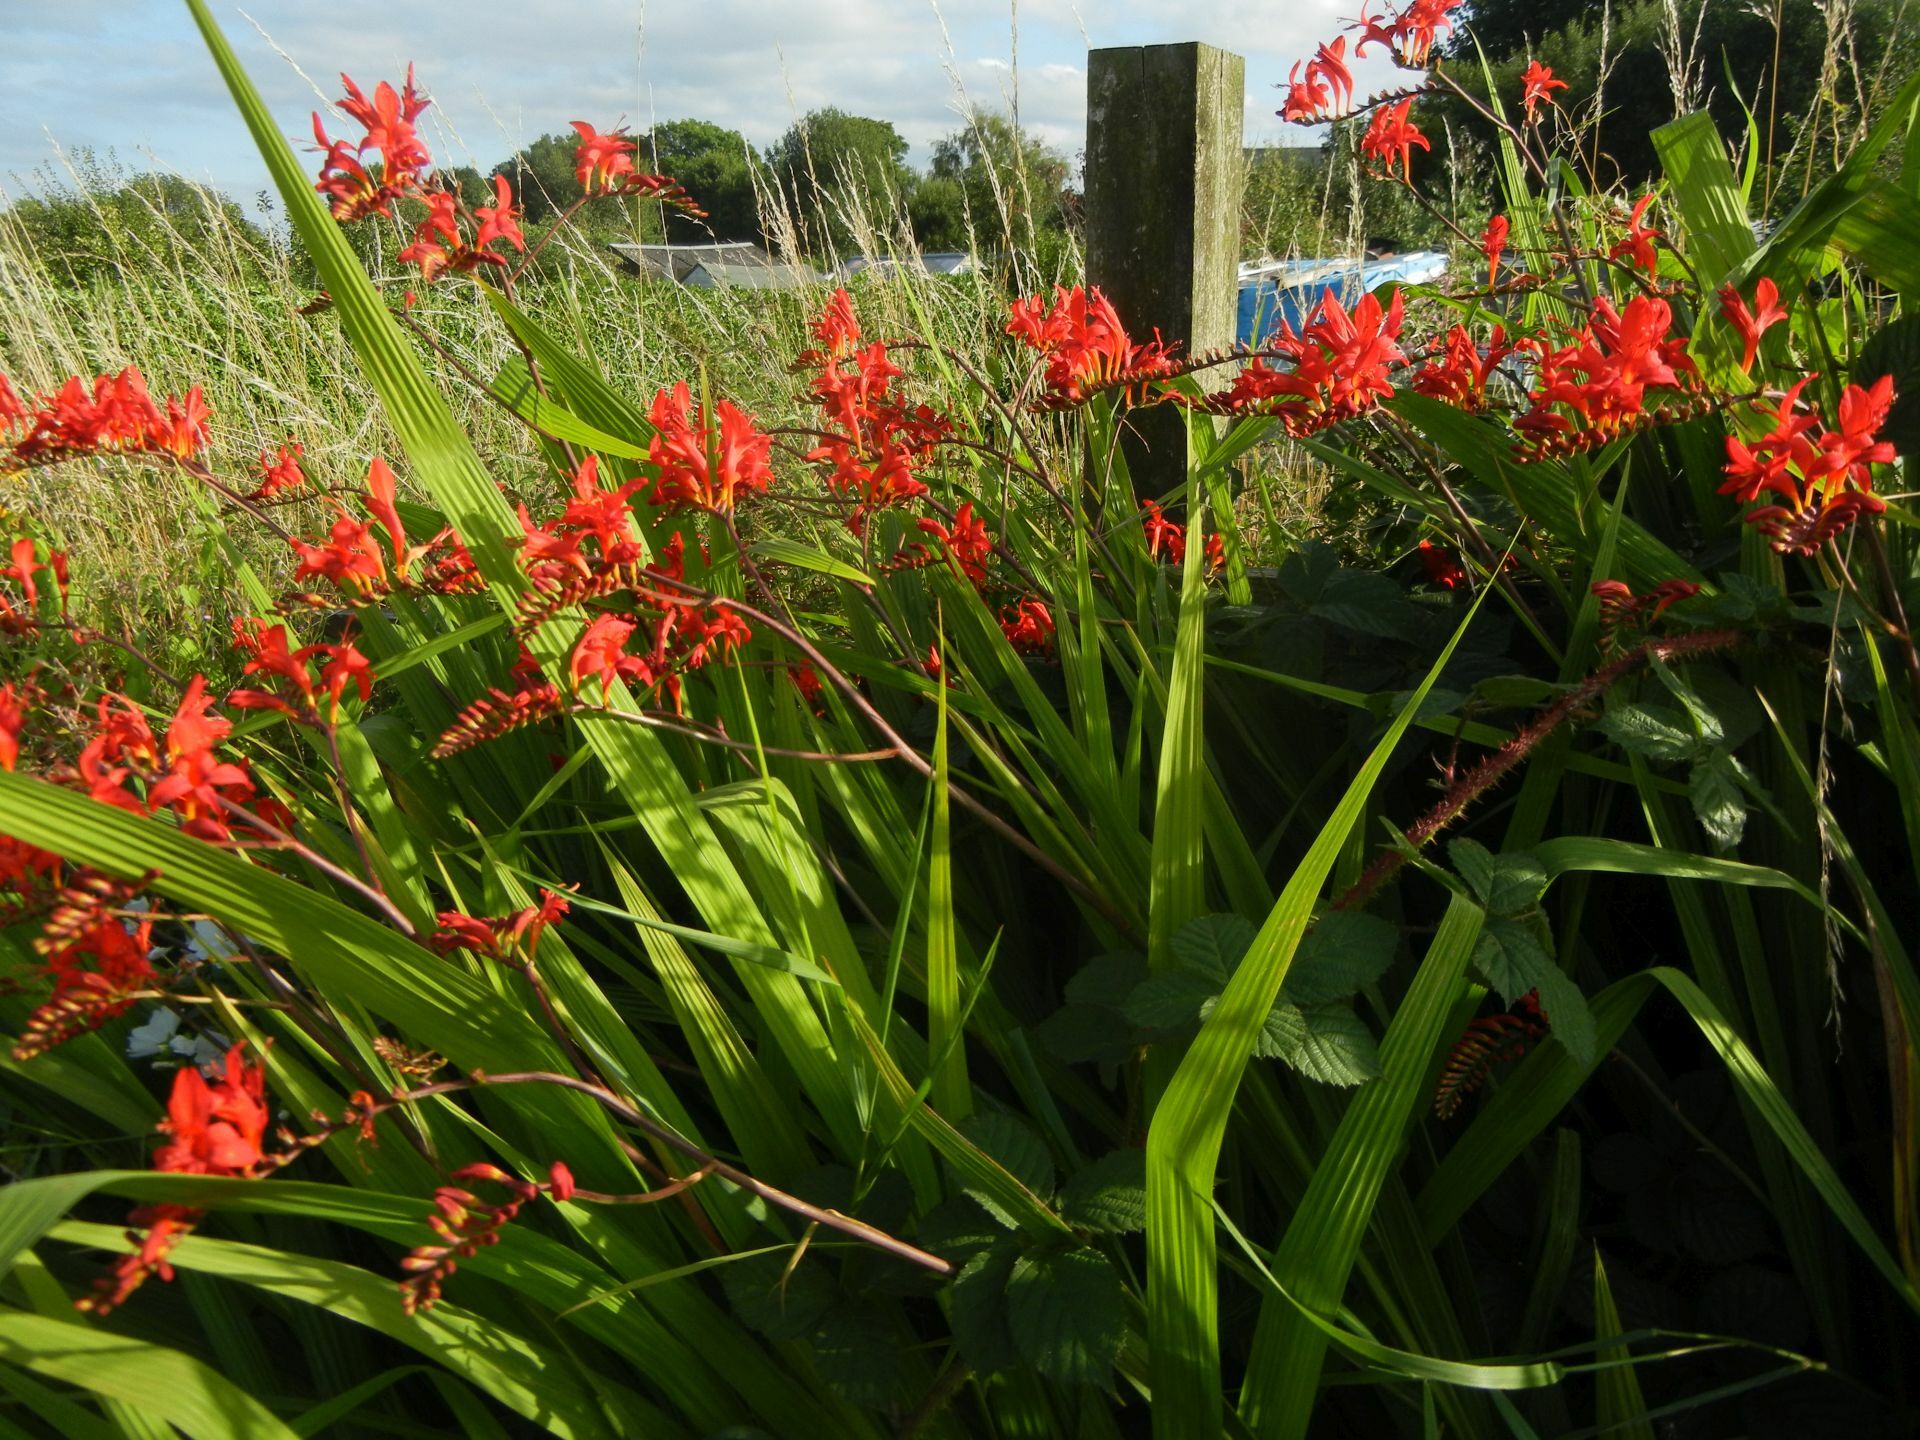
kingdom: Plantae
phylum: Tracheophyta
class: Liliopsida
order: Asparagales
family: Iridaceae
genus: Crocosmia
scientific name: Crocosmia
